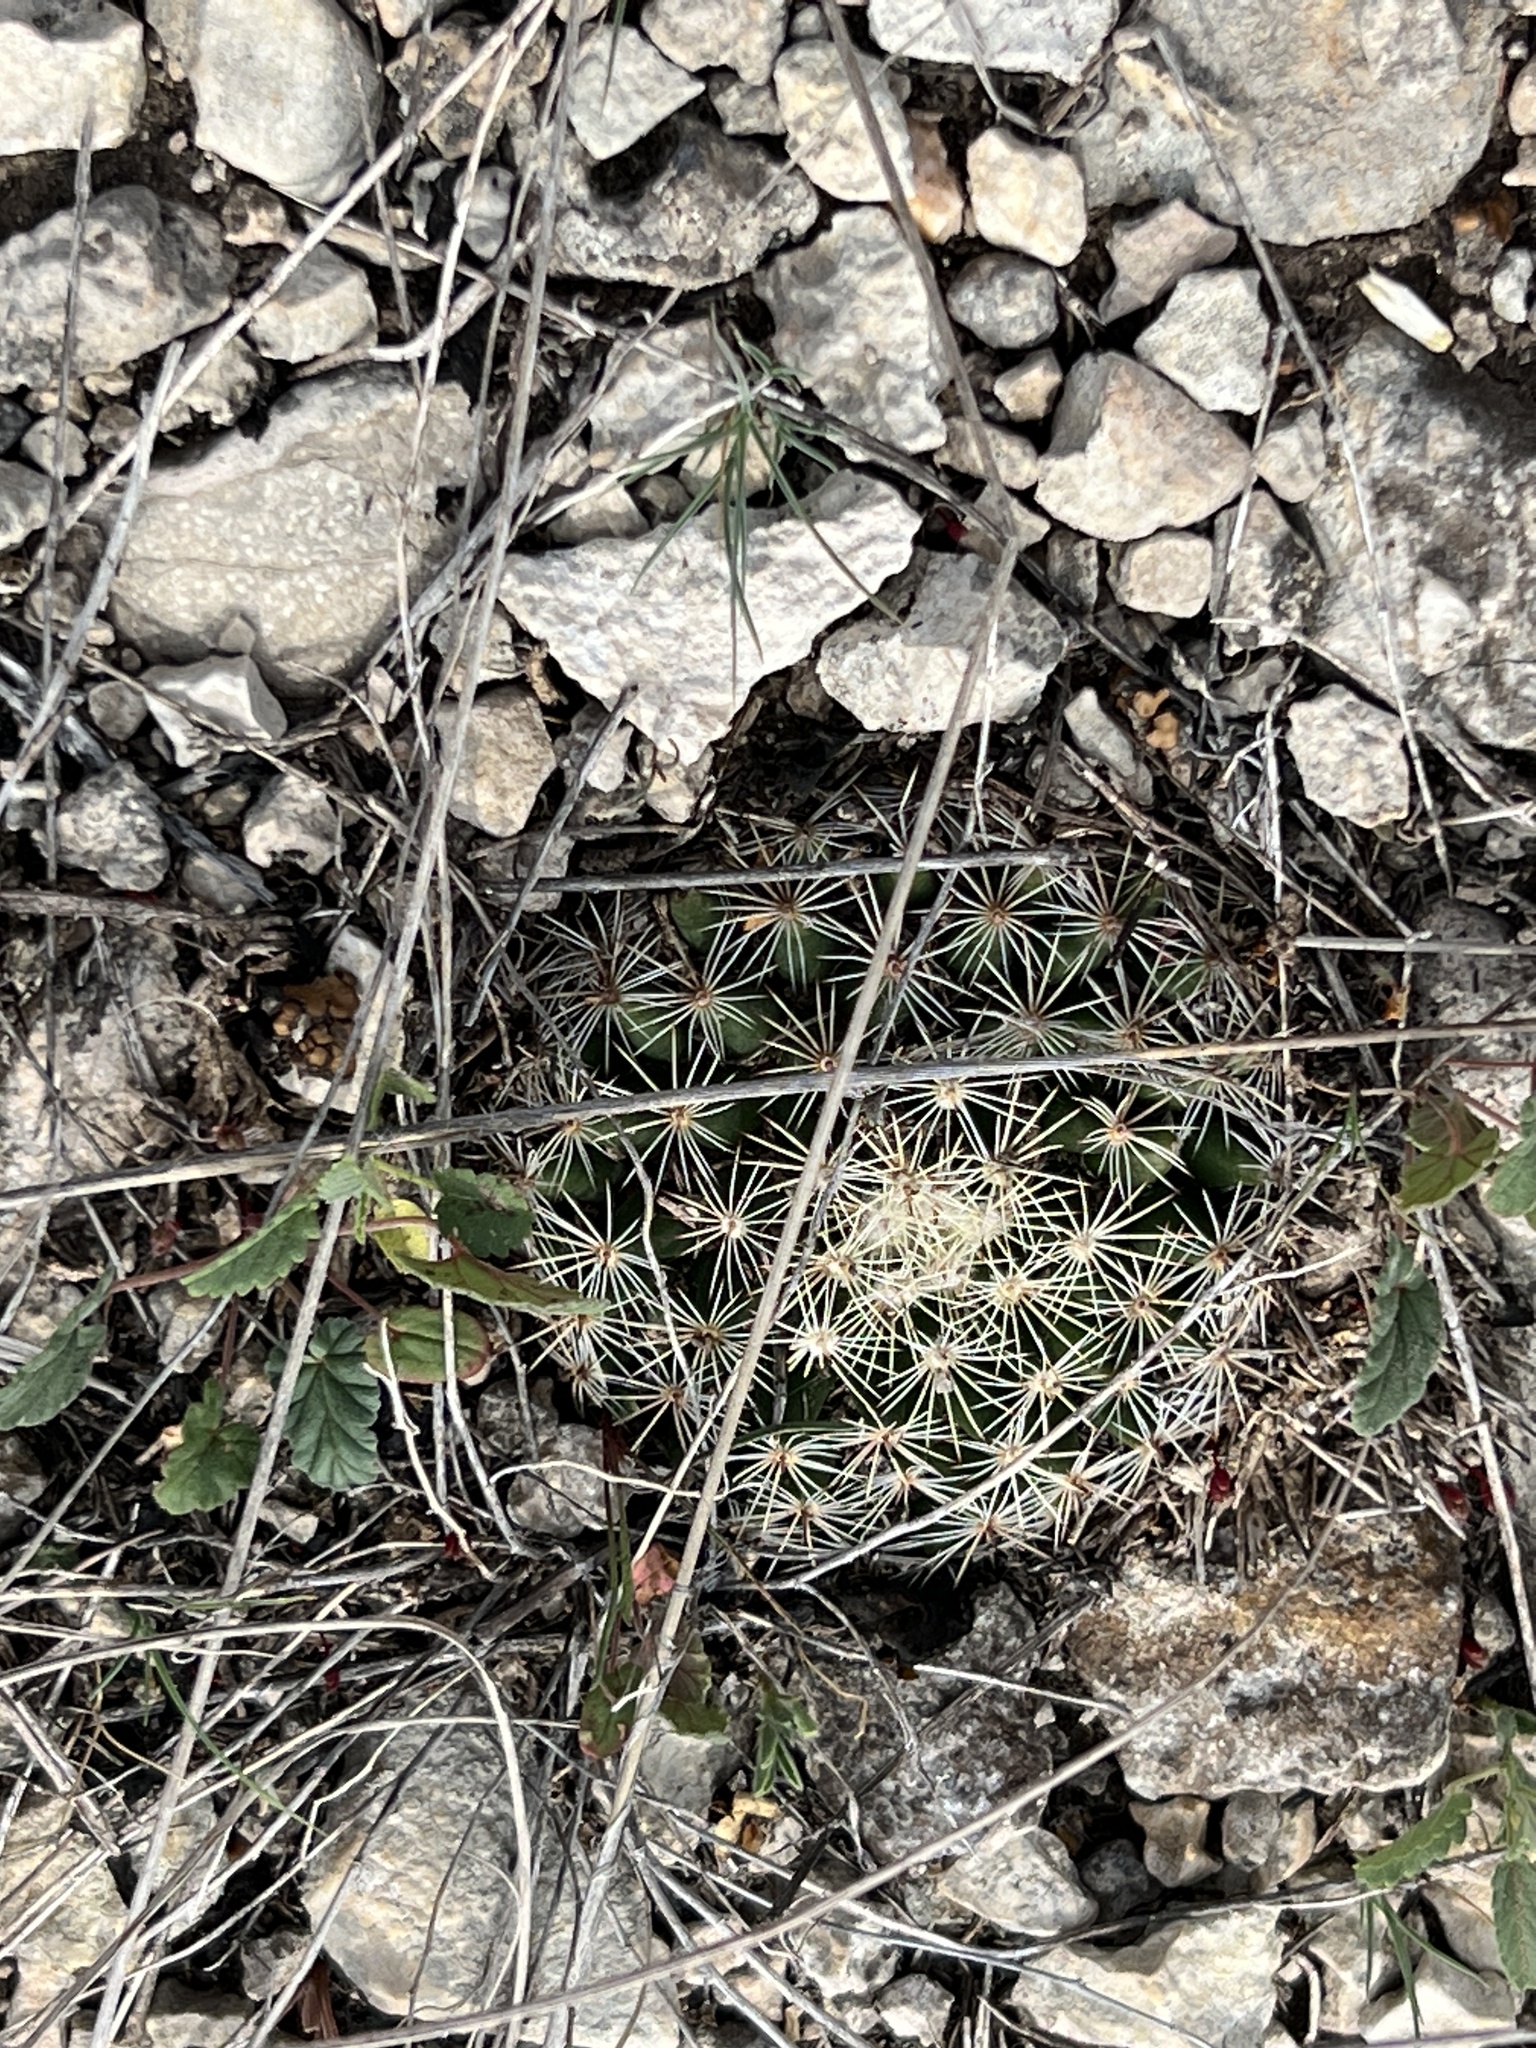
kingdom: Plantae
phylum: Tracheophyta
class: Magnoliopsida
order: Caryophyllales
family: Cactaceae
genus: Mammillaria
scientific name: Mammillaria heyderi
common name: Little nipple cactus
